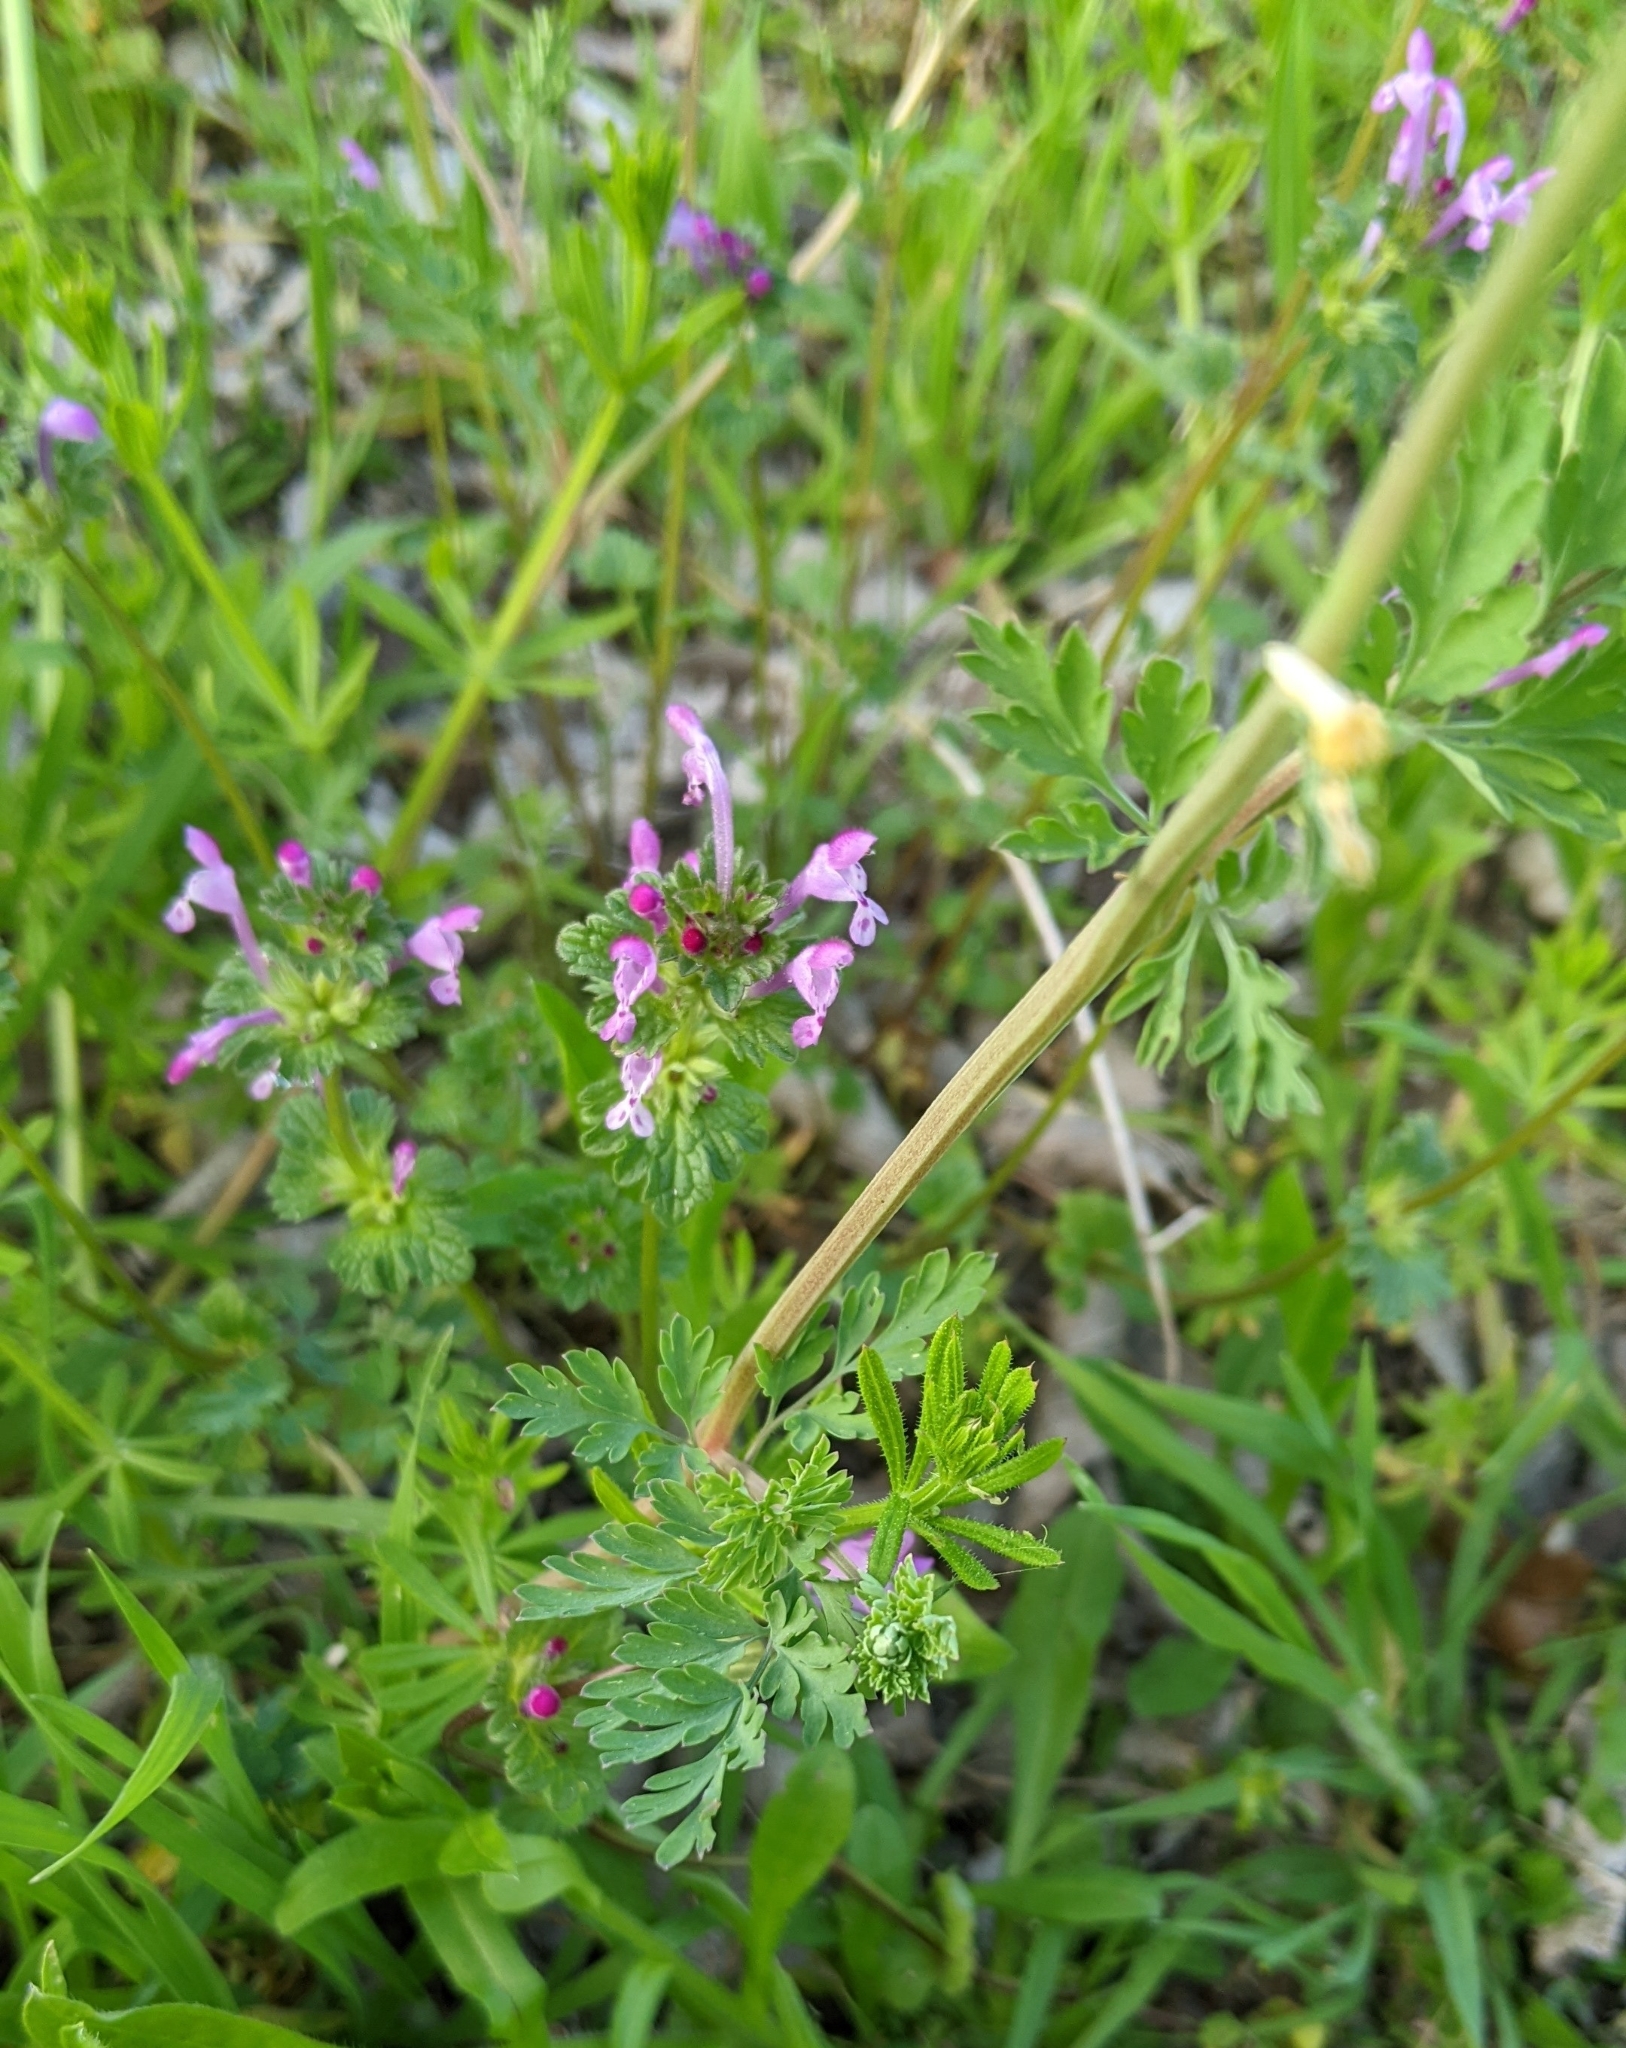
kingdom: Plantae
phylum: Tracheophyta
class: Magnoliopsida
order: Ranunculales
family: Papaveraceae
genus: Corydalis
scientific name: Corydalis aurea
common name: Golden corydalis
